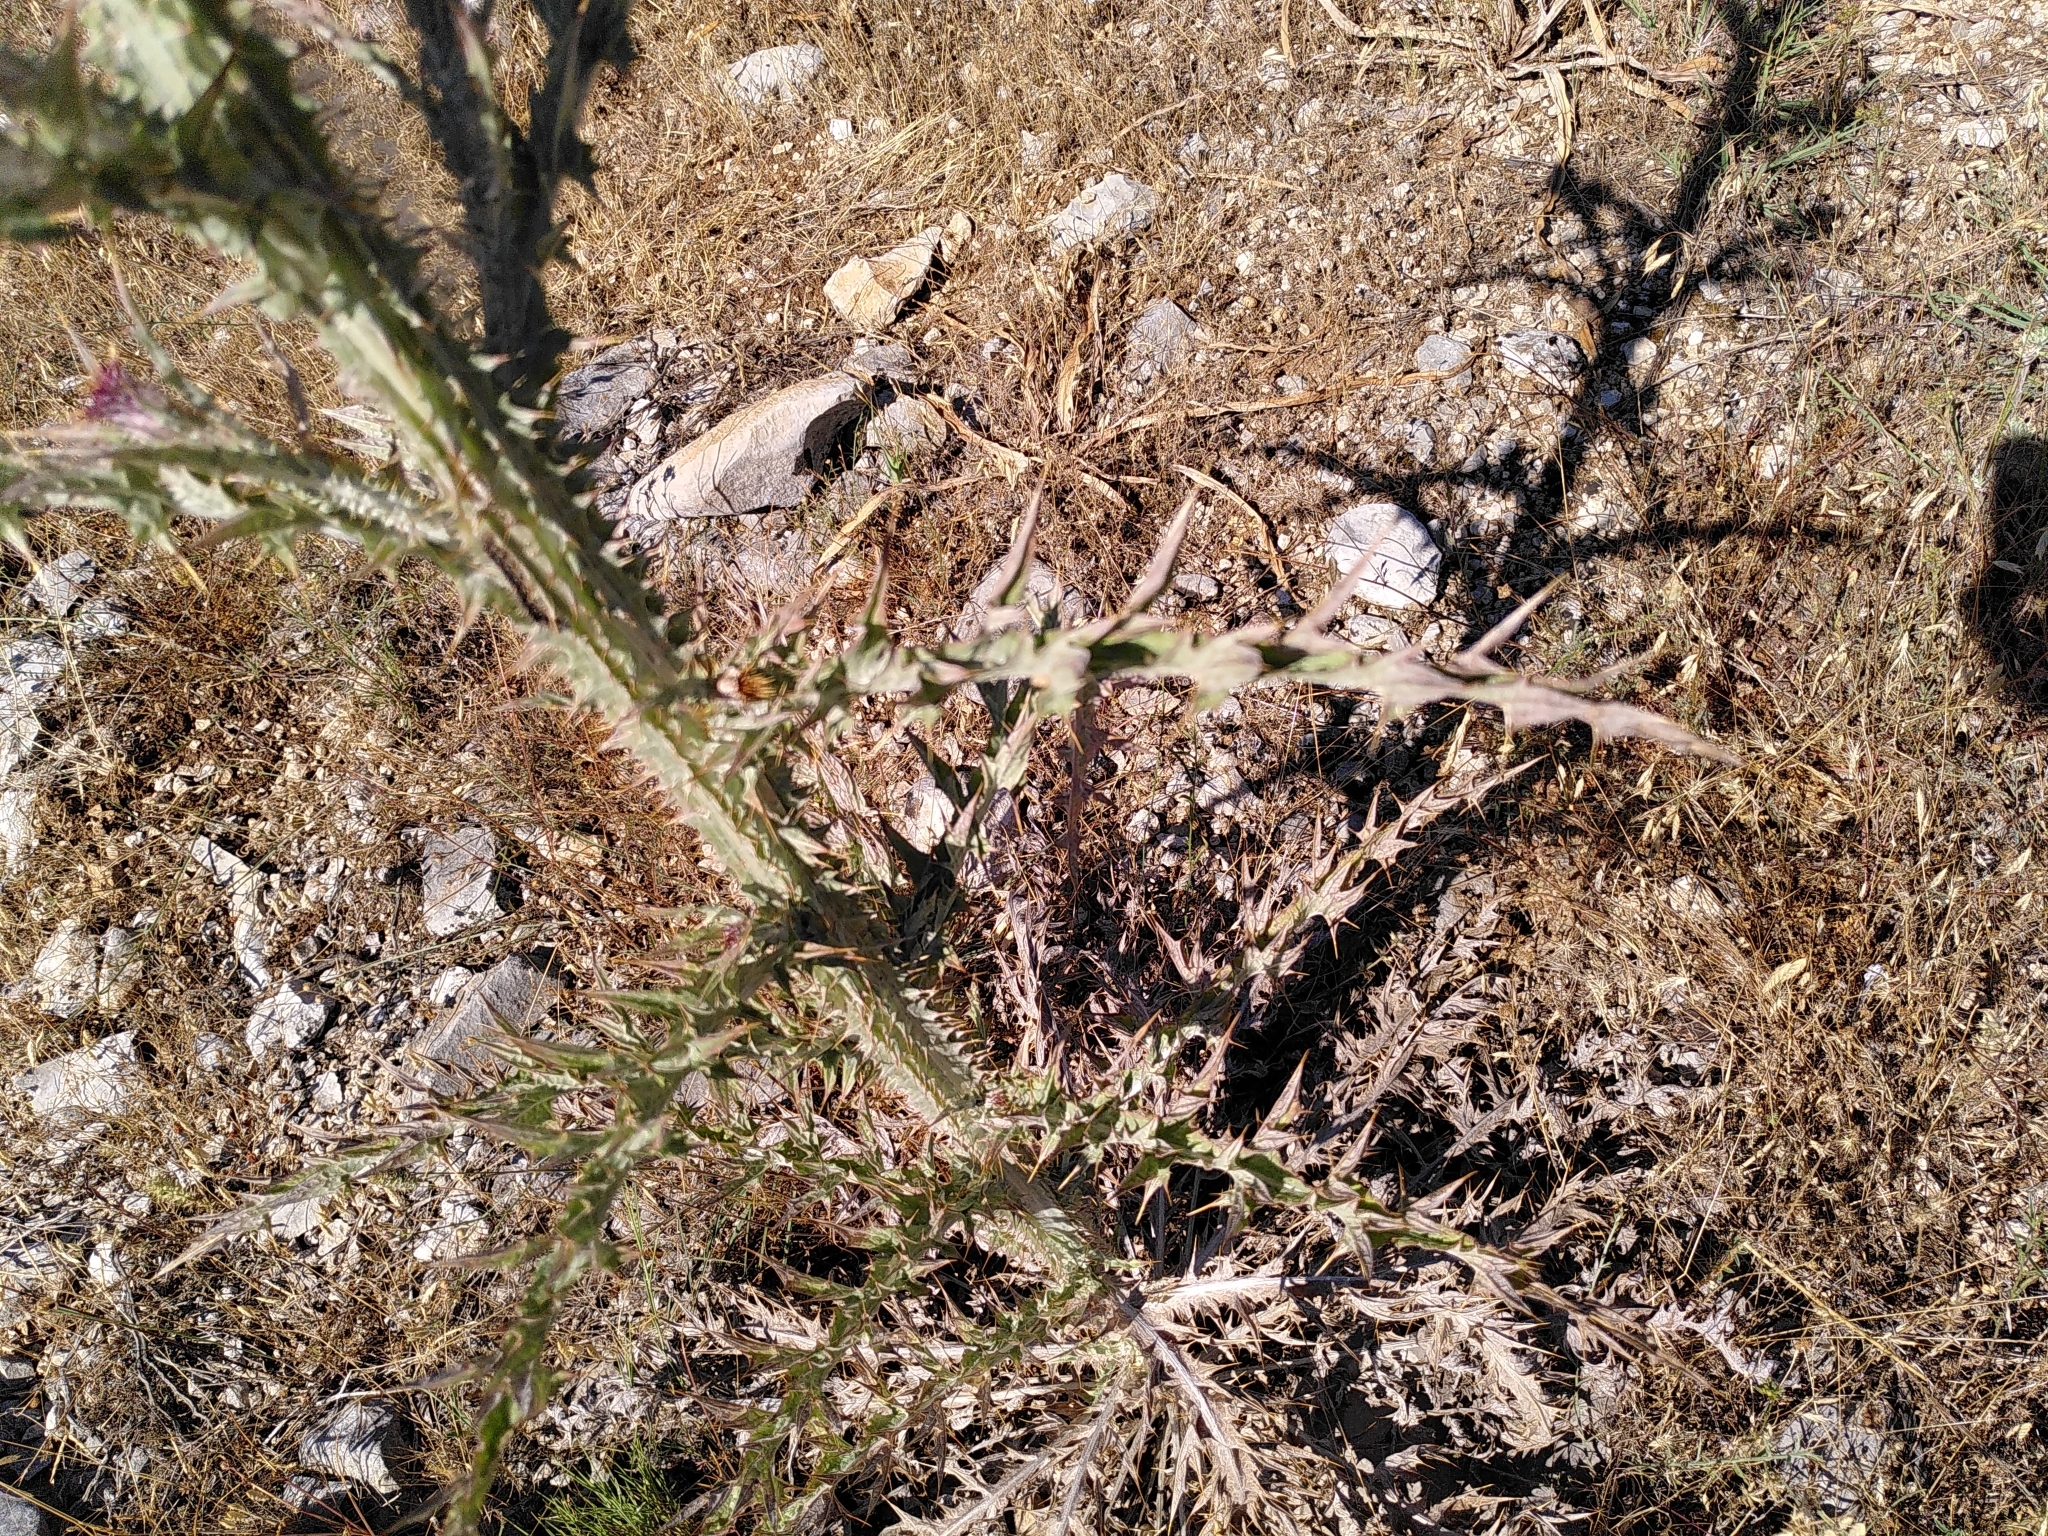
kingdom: Plantae
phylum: Tracheophyta
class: Magnoliopsida
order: Asterales
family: Asteraceae
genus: Onopordum
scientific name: Onopordum illyricum
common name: Illyrian thistle
